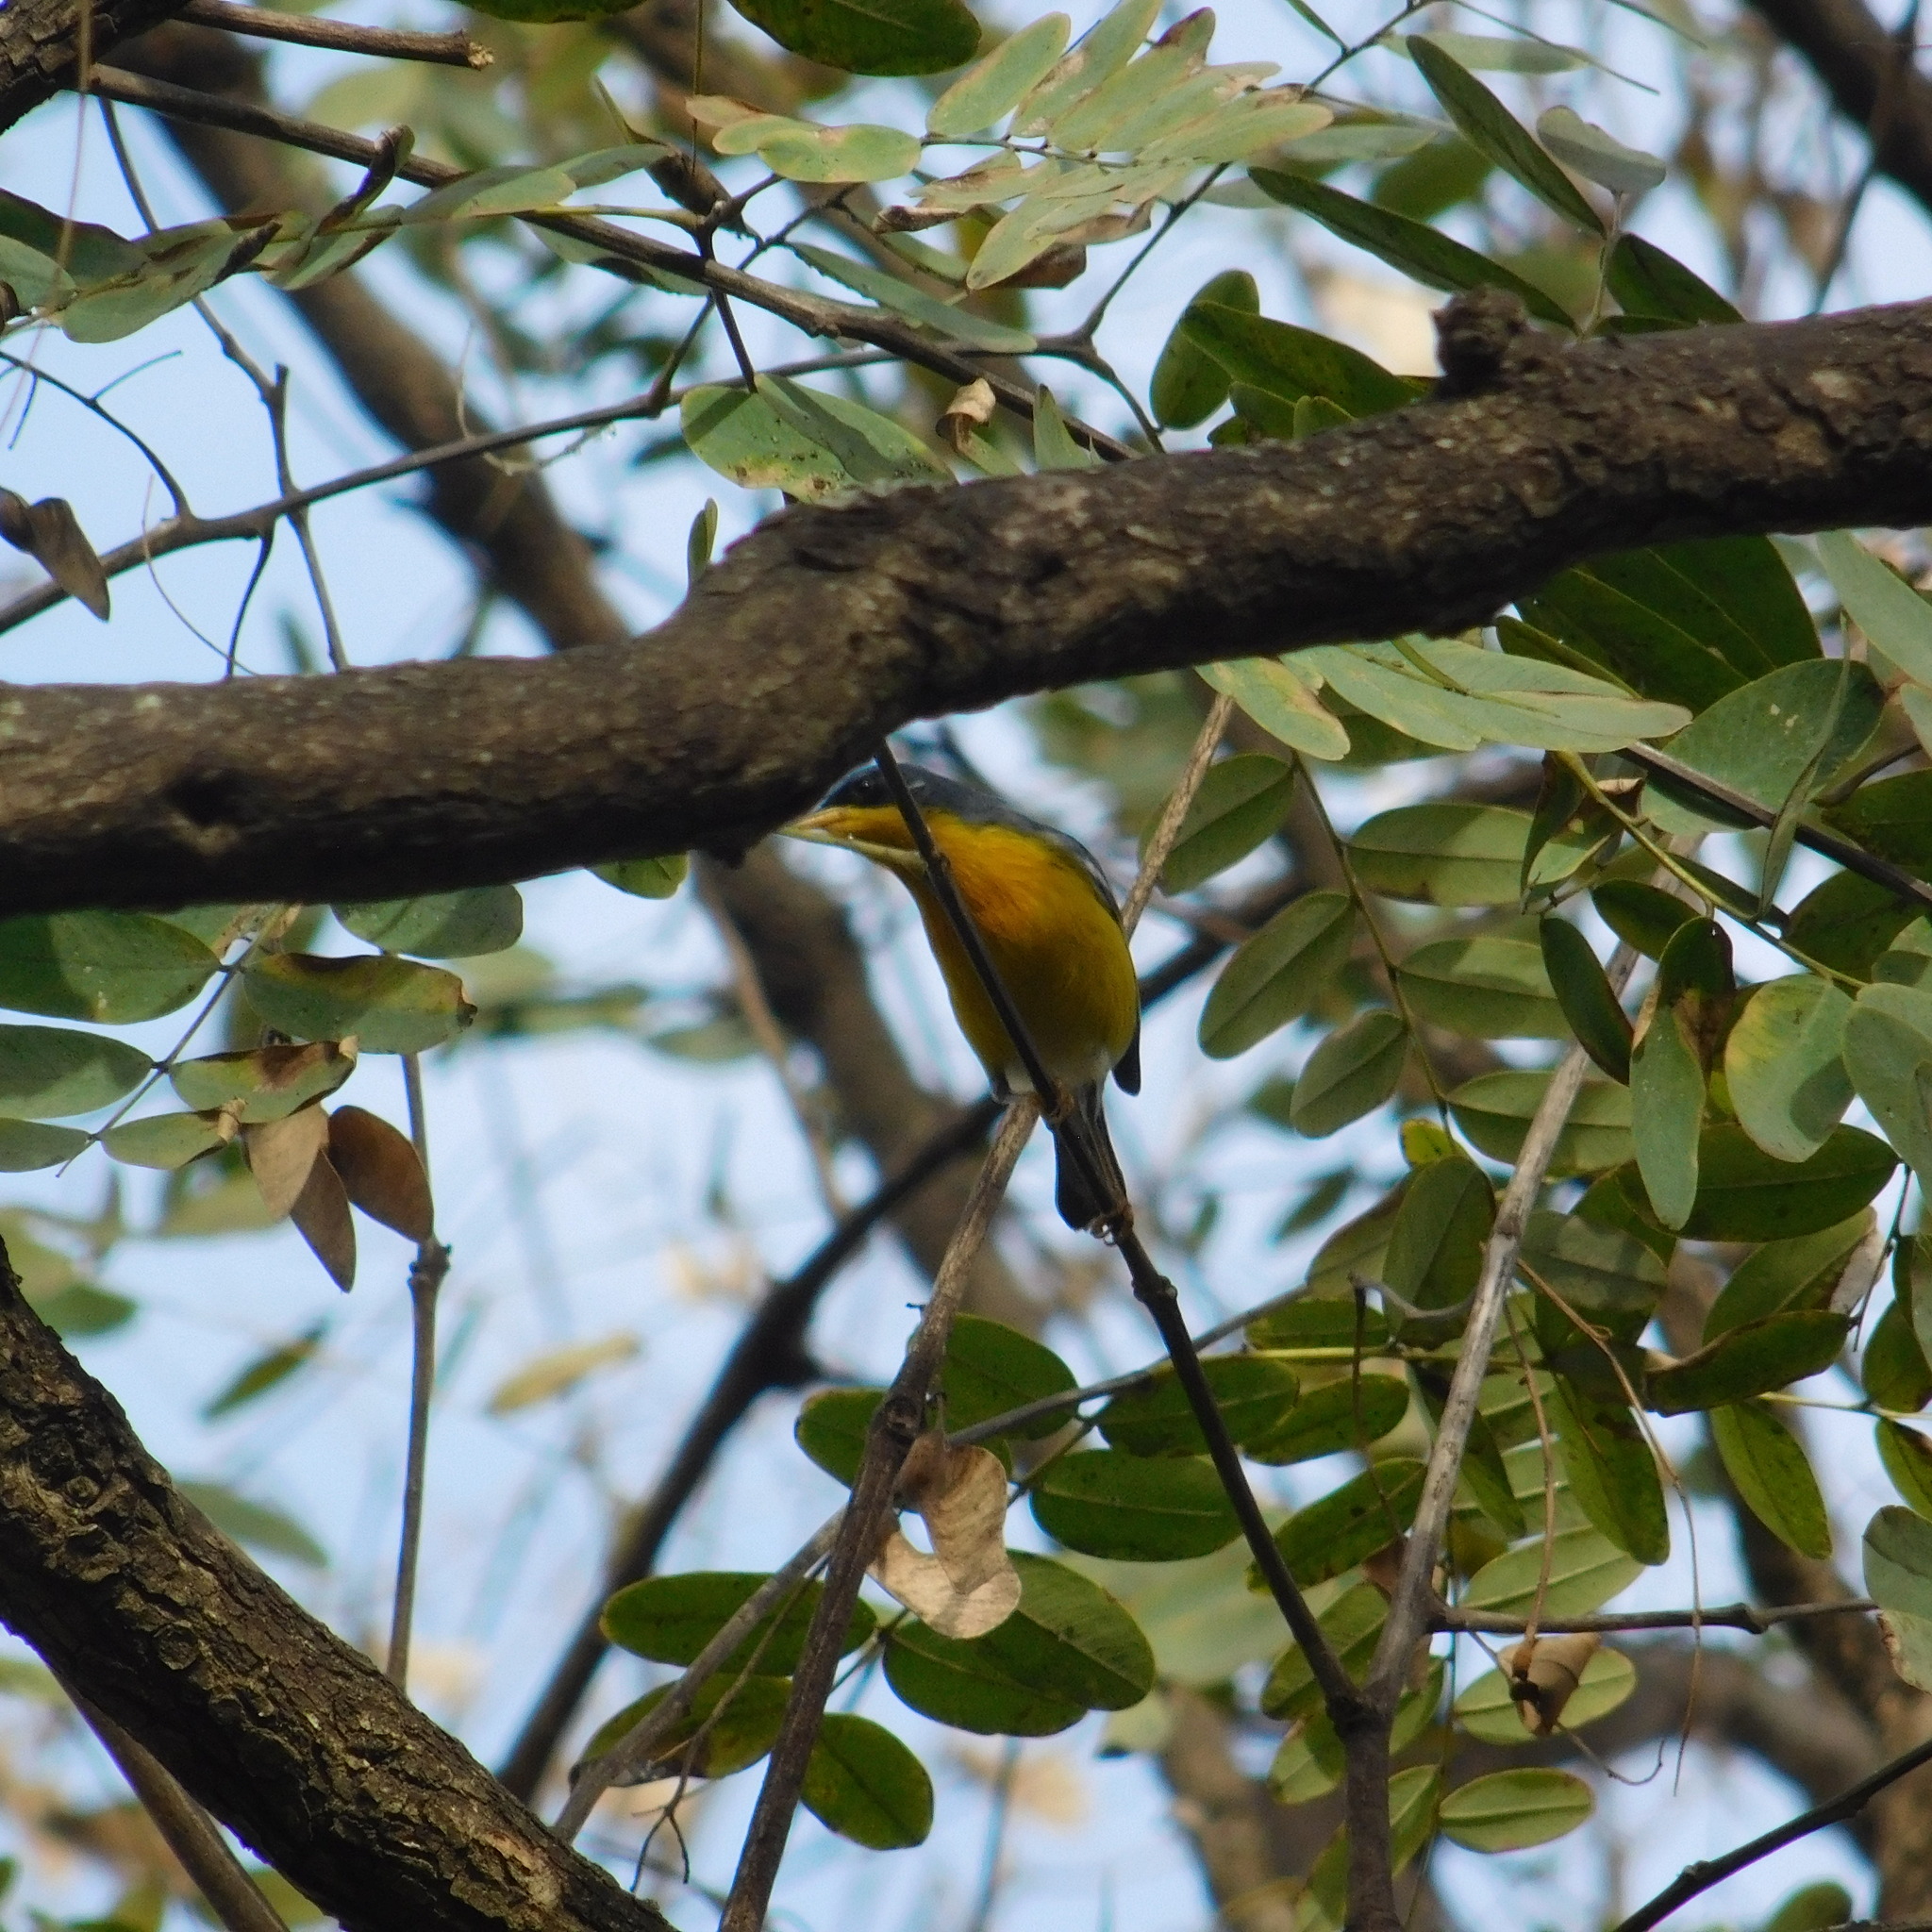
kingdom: Animalia
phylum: Chordata
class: Aves
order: Passeriformes
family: Parulidae
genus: Setophaga
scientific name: Setophaga pitiayumi
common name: Tropical parula
